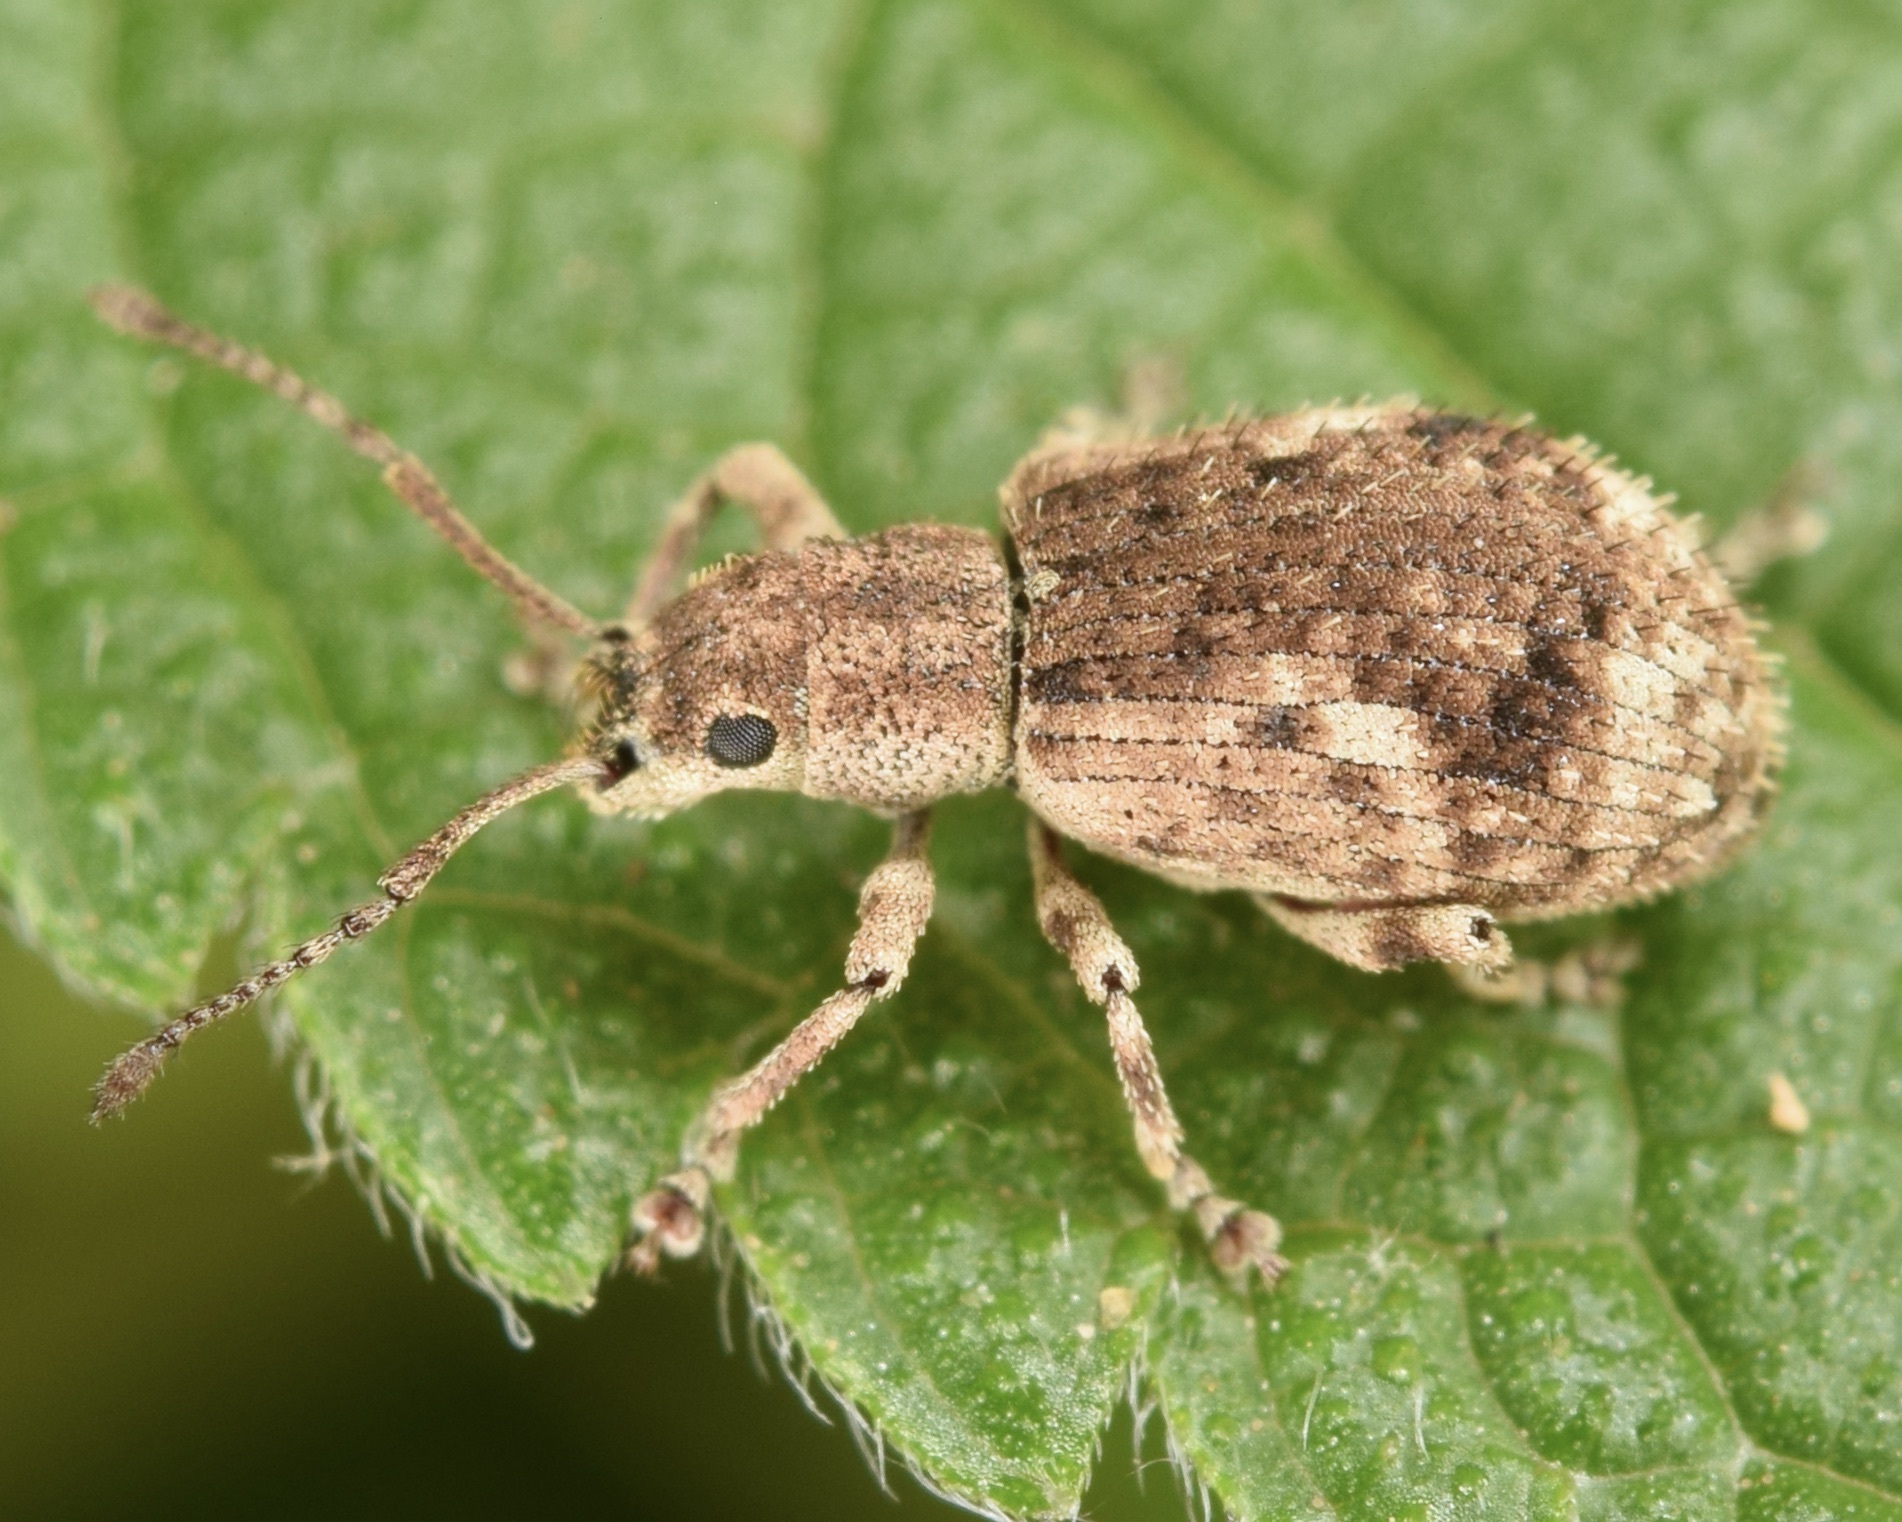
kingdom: Animalia
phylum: Arthropoda
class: Insecta
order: Coleoptera
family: Curculionidae
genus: Pseudoedophrys
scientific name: Pseudoedophrys hilleri
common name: Weevil
